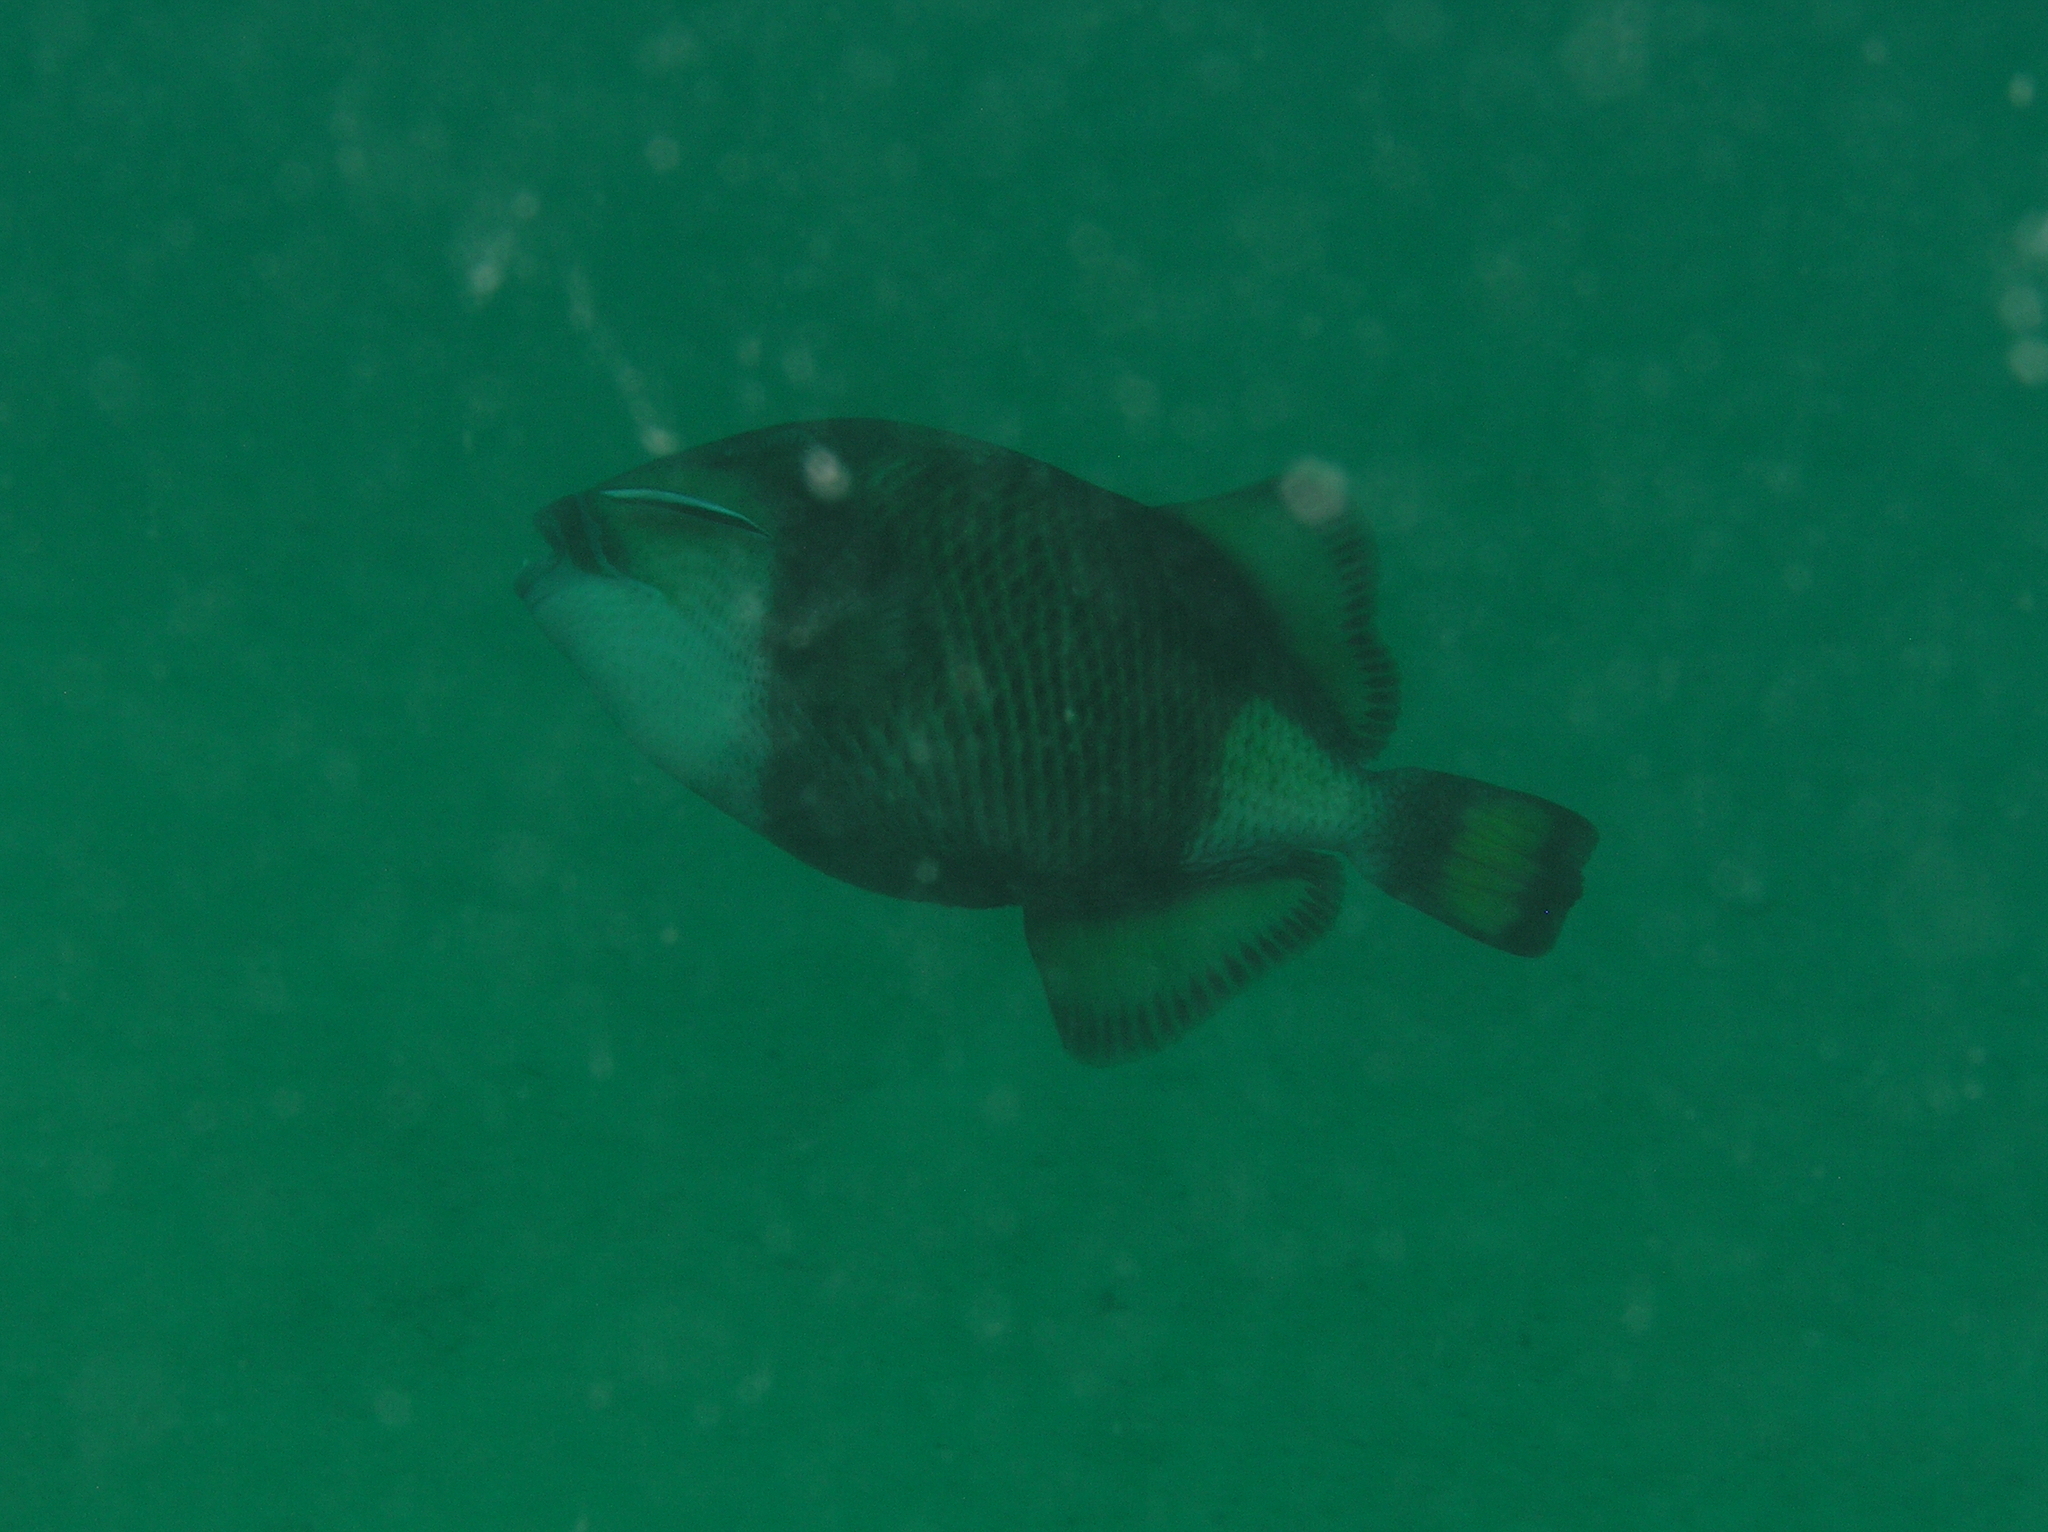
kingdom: Animalia
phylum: Chordata
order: Tetraodontiformes
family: Balistidae
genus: Balistoides
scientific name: Balistoides viridescens
